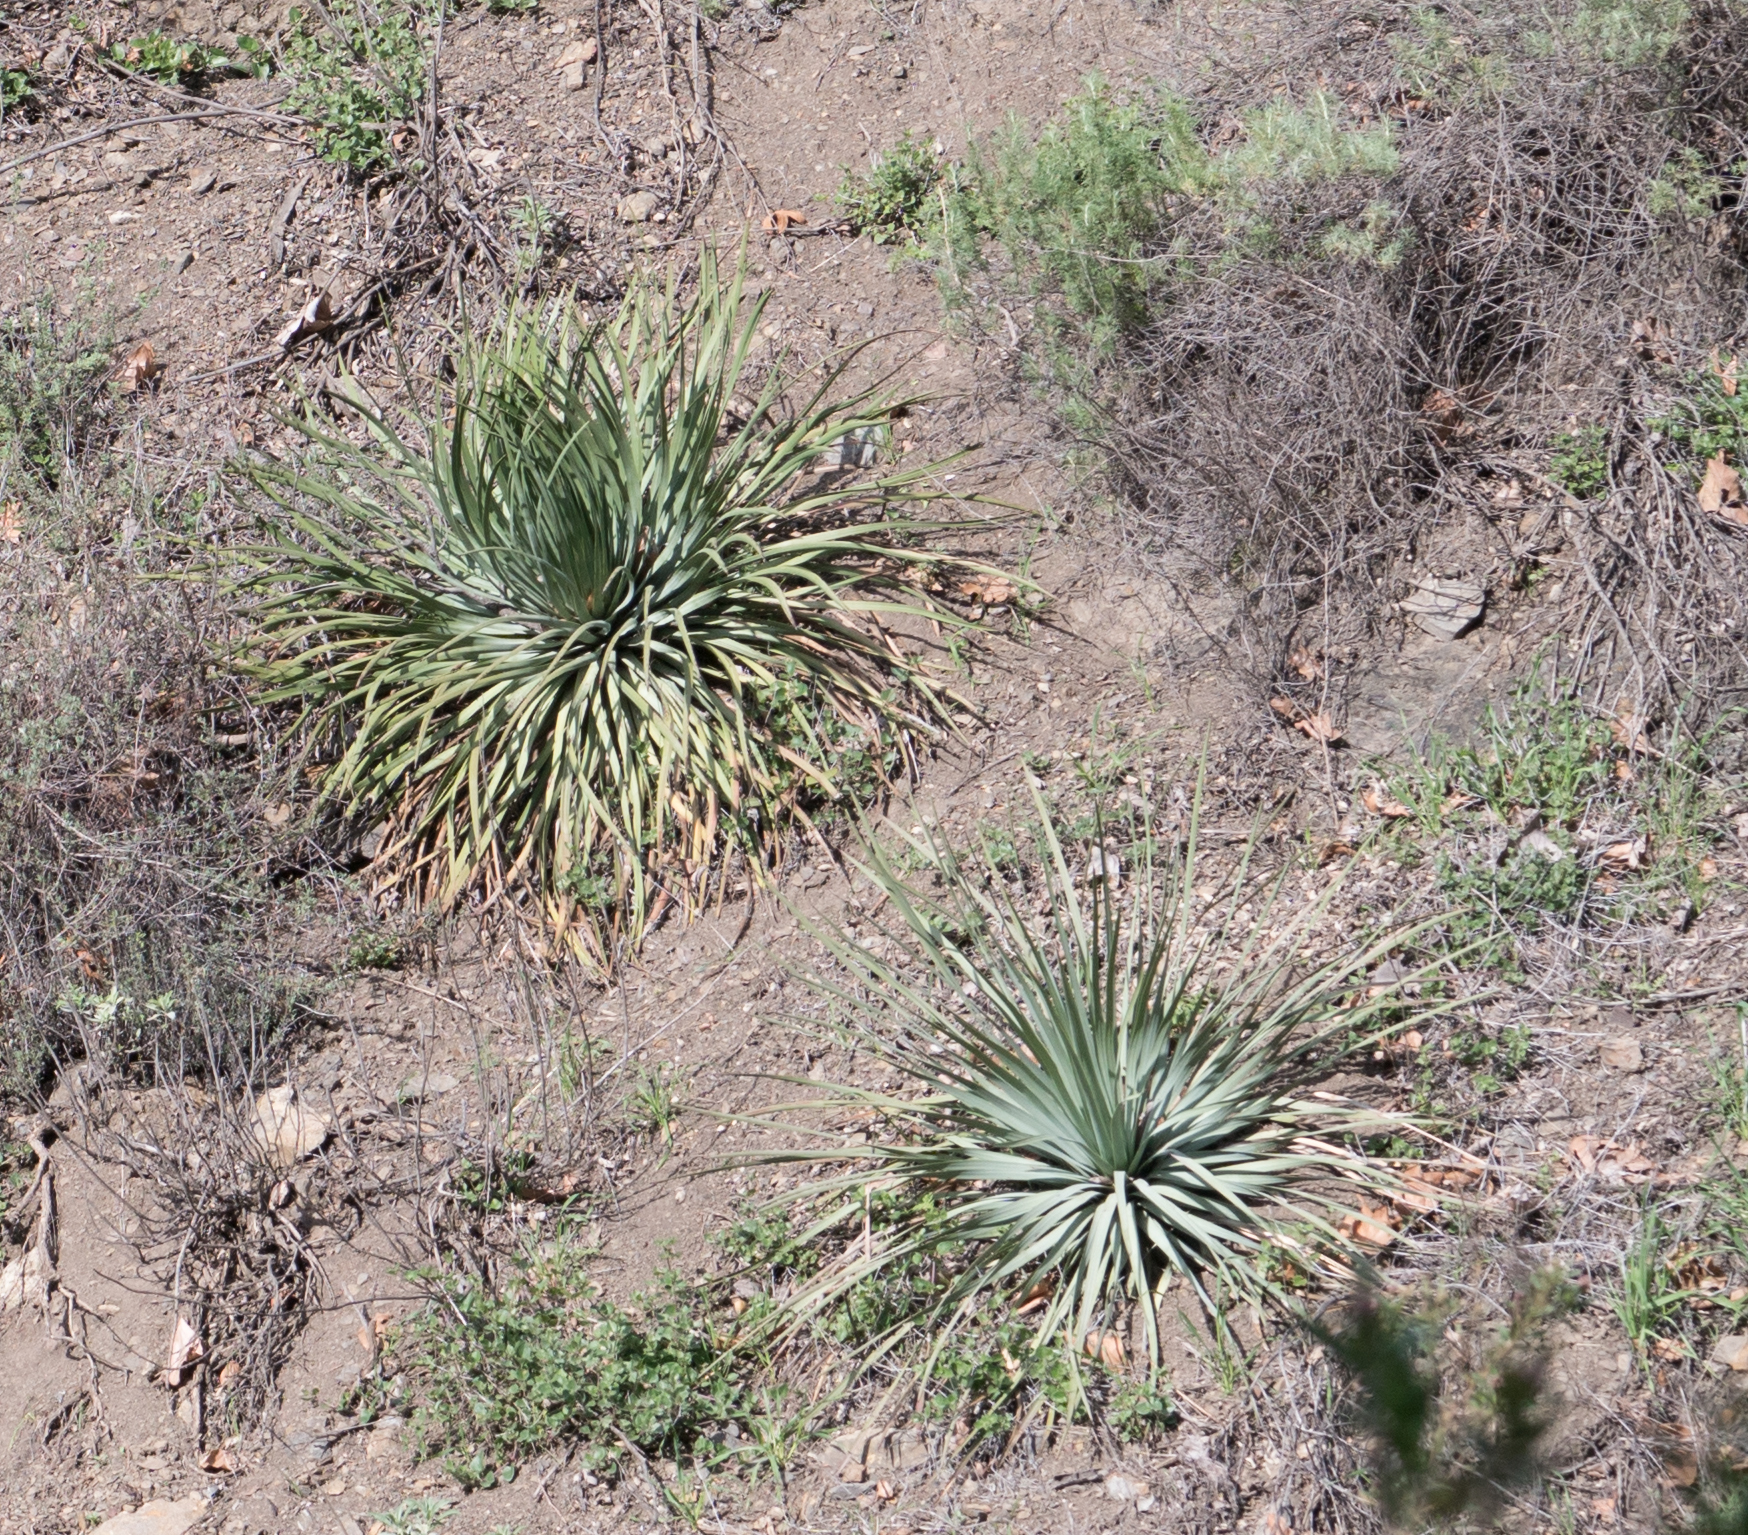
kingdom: Plantae
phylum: Tracheophyta
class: Liliopsida
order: Asparagales
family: Asparagaceae
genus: Hesperoyucca
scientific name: Hesperoyucca whipplei
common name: Our lord's-candle
